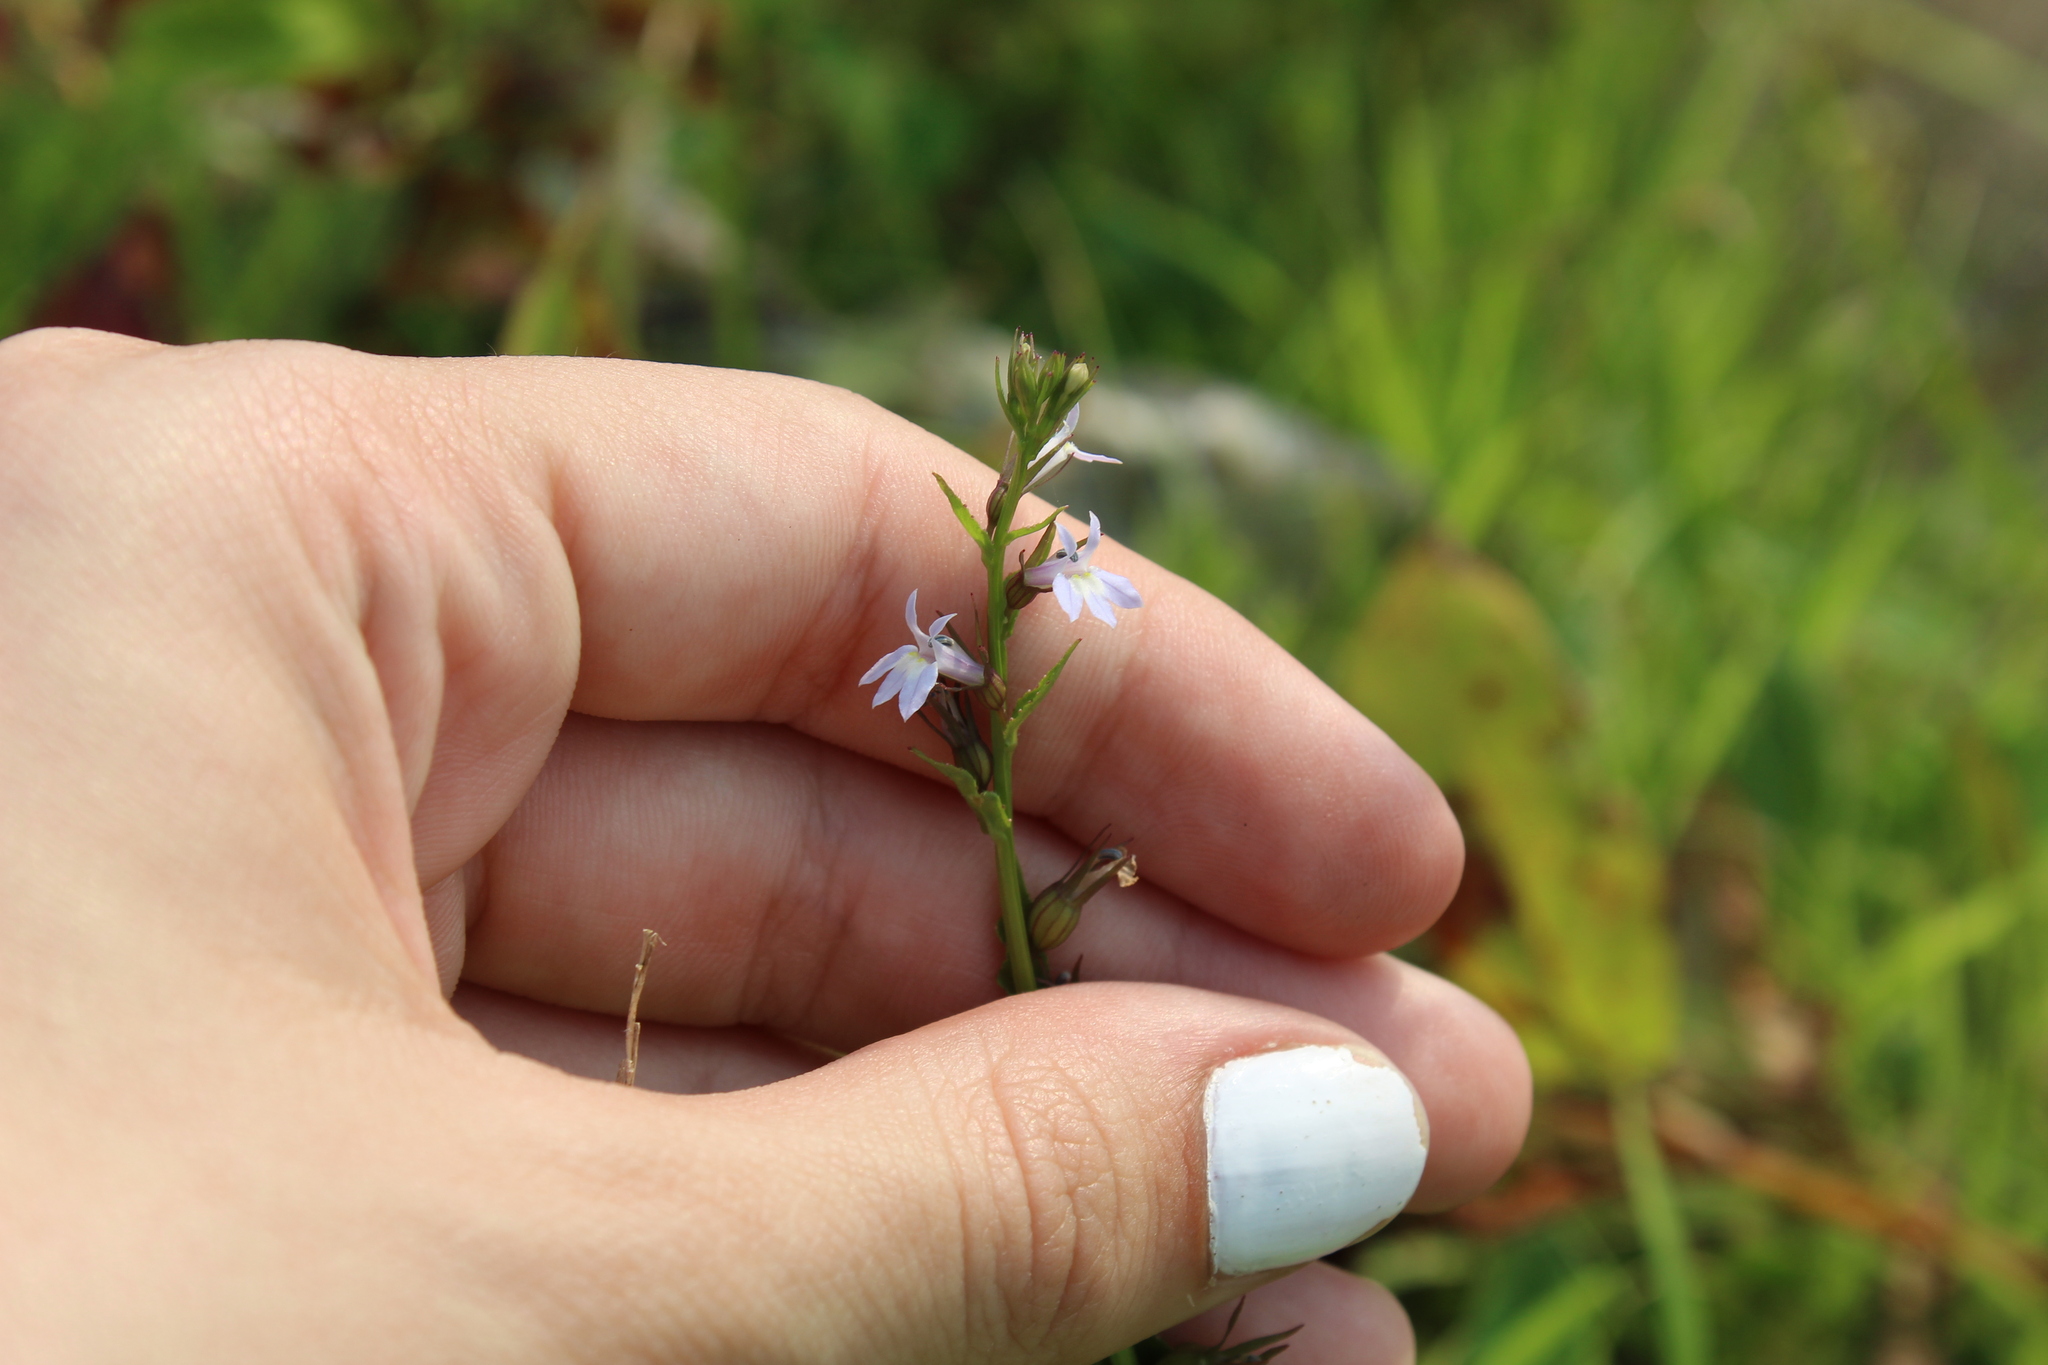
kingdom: Plantae
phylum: Tracheophyta
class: Magnoliopsida
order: Asterales
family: Campanulaceae
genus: Lobelia
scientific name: Lobelia inflata
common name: Indian tobacco
